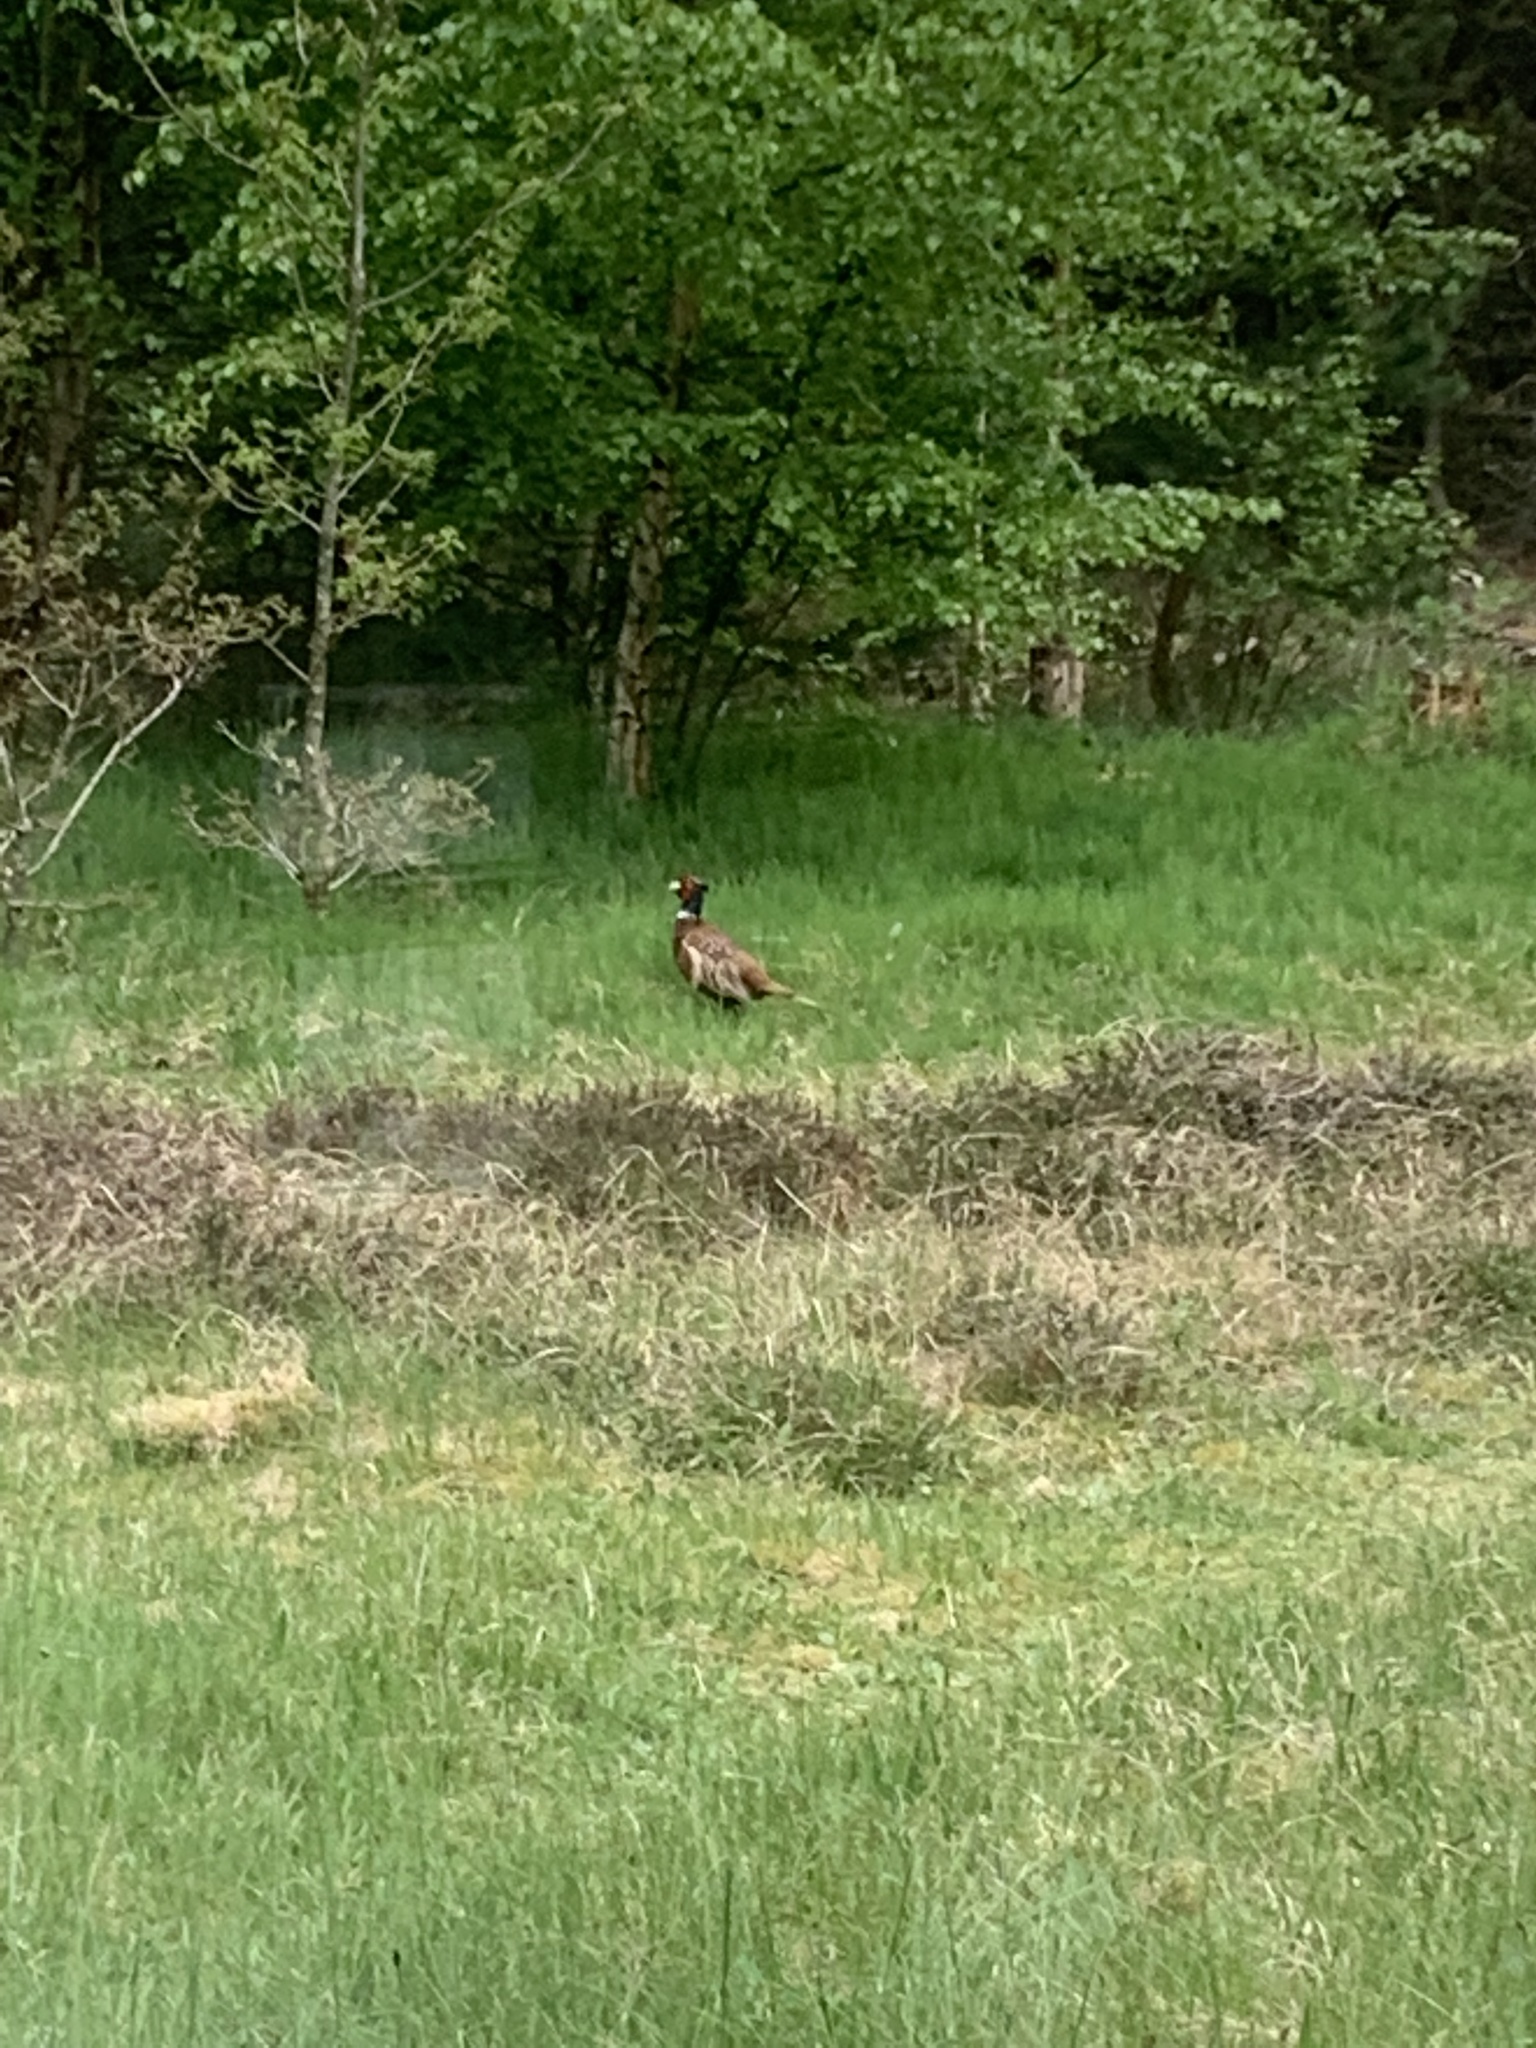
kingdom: Animalia
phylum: Chordata
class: Aves
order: Galliformes
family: Phasianidae
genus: Phasianus
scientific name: Phasianus colchicus
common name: Common pheasant
